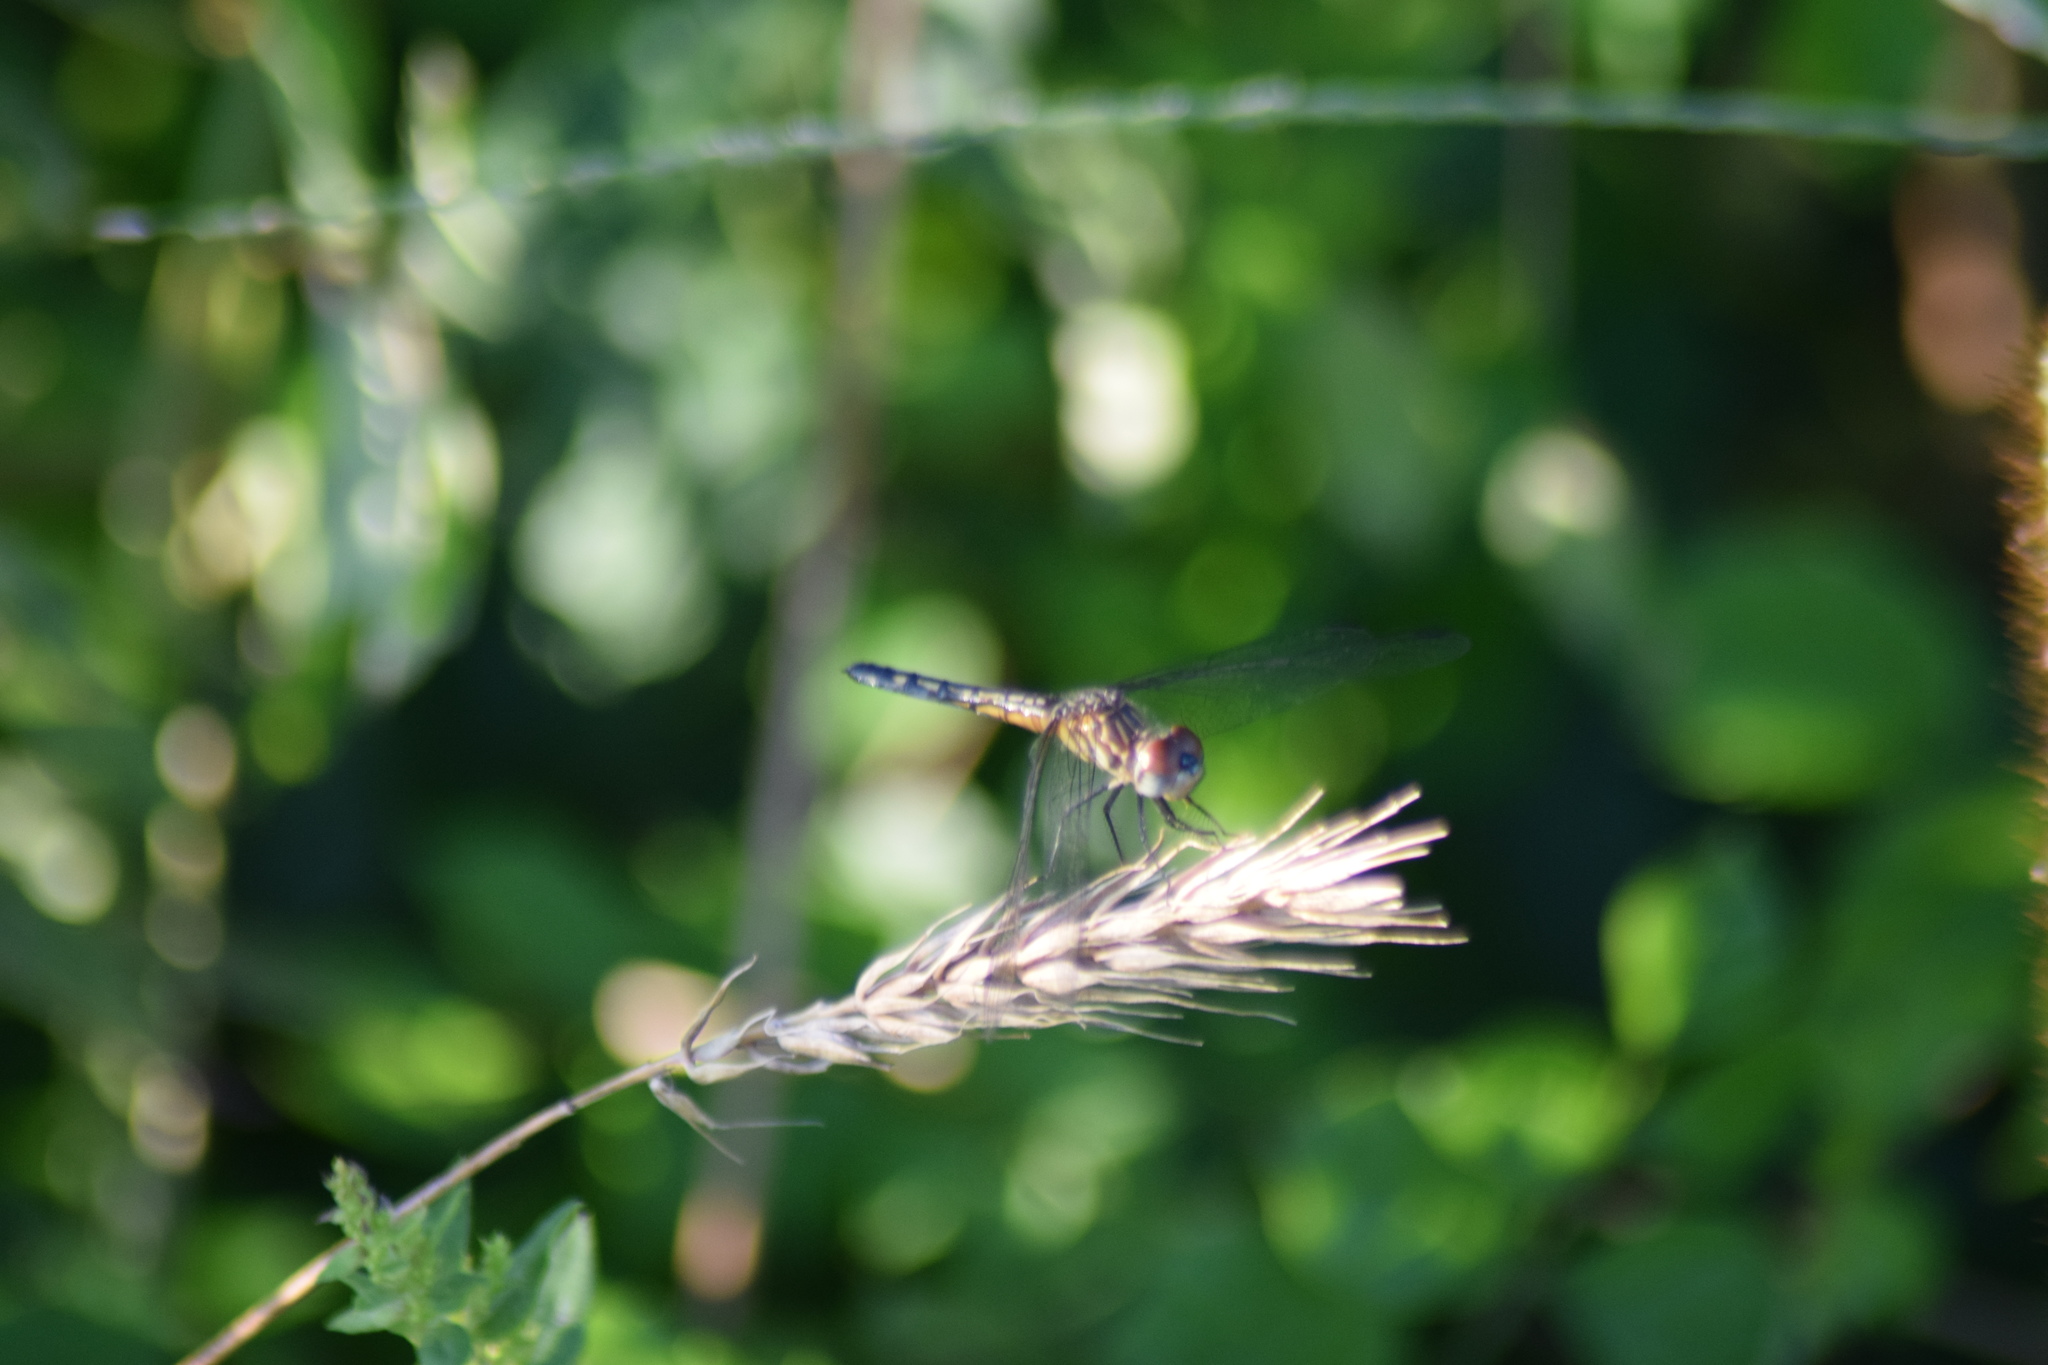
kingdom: Animalia
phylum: Arthropoda
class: Insecta
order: Odonata
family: Libellulidae
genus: Pachydiplax
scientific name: Pachydiplax longipennis
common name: Blue dasher
